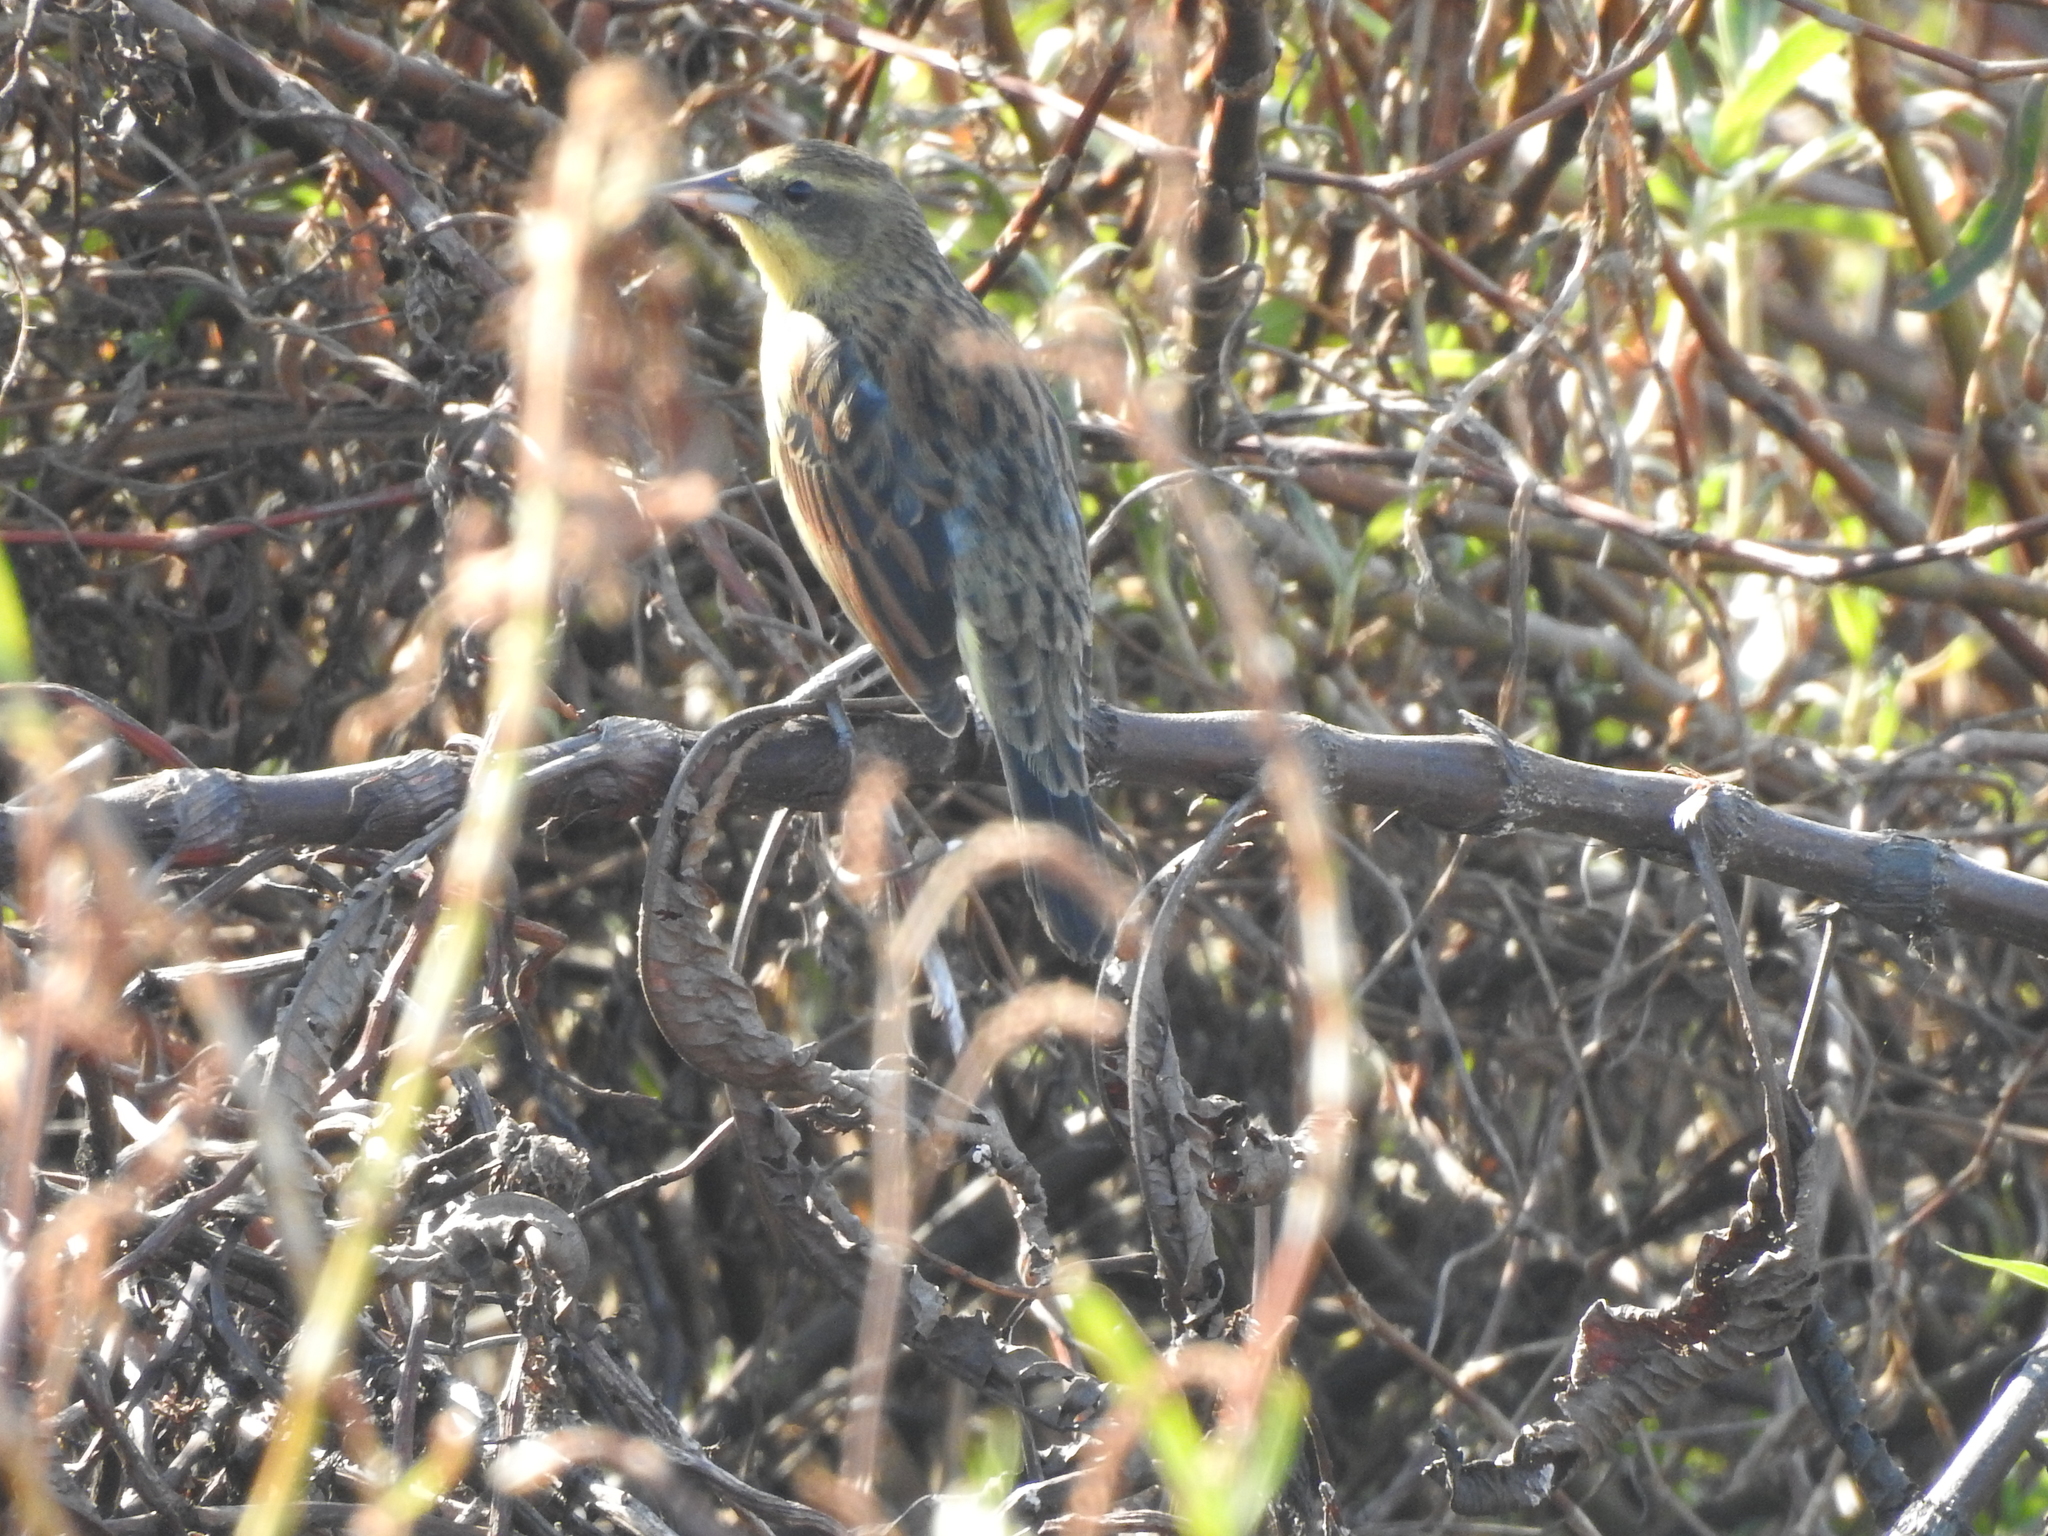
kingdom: Animalia
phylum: Chordata
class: Aves
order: Passeriformes
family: Icteridae
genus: Agelasticus
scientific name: Agelasticus cyanopus
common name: Unicolored blackbird
